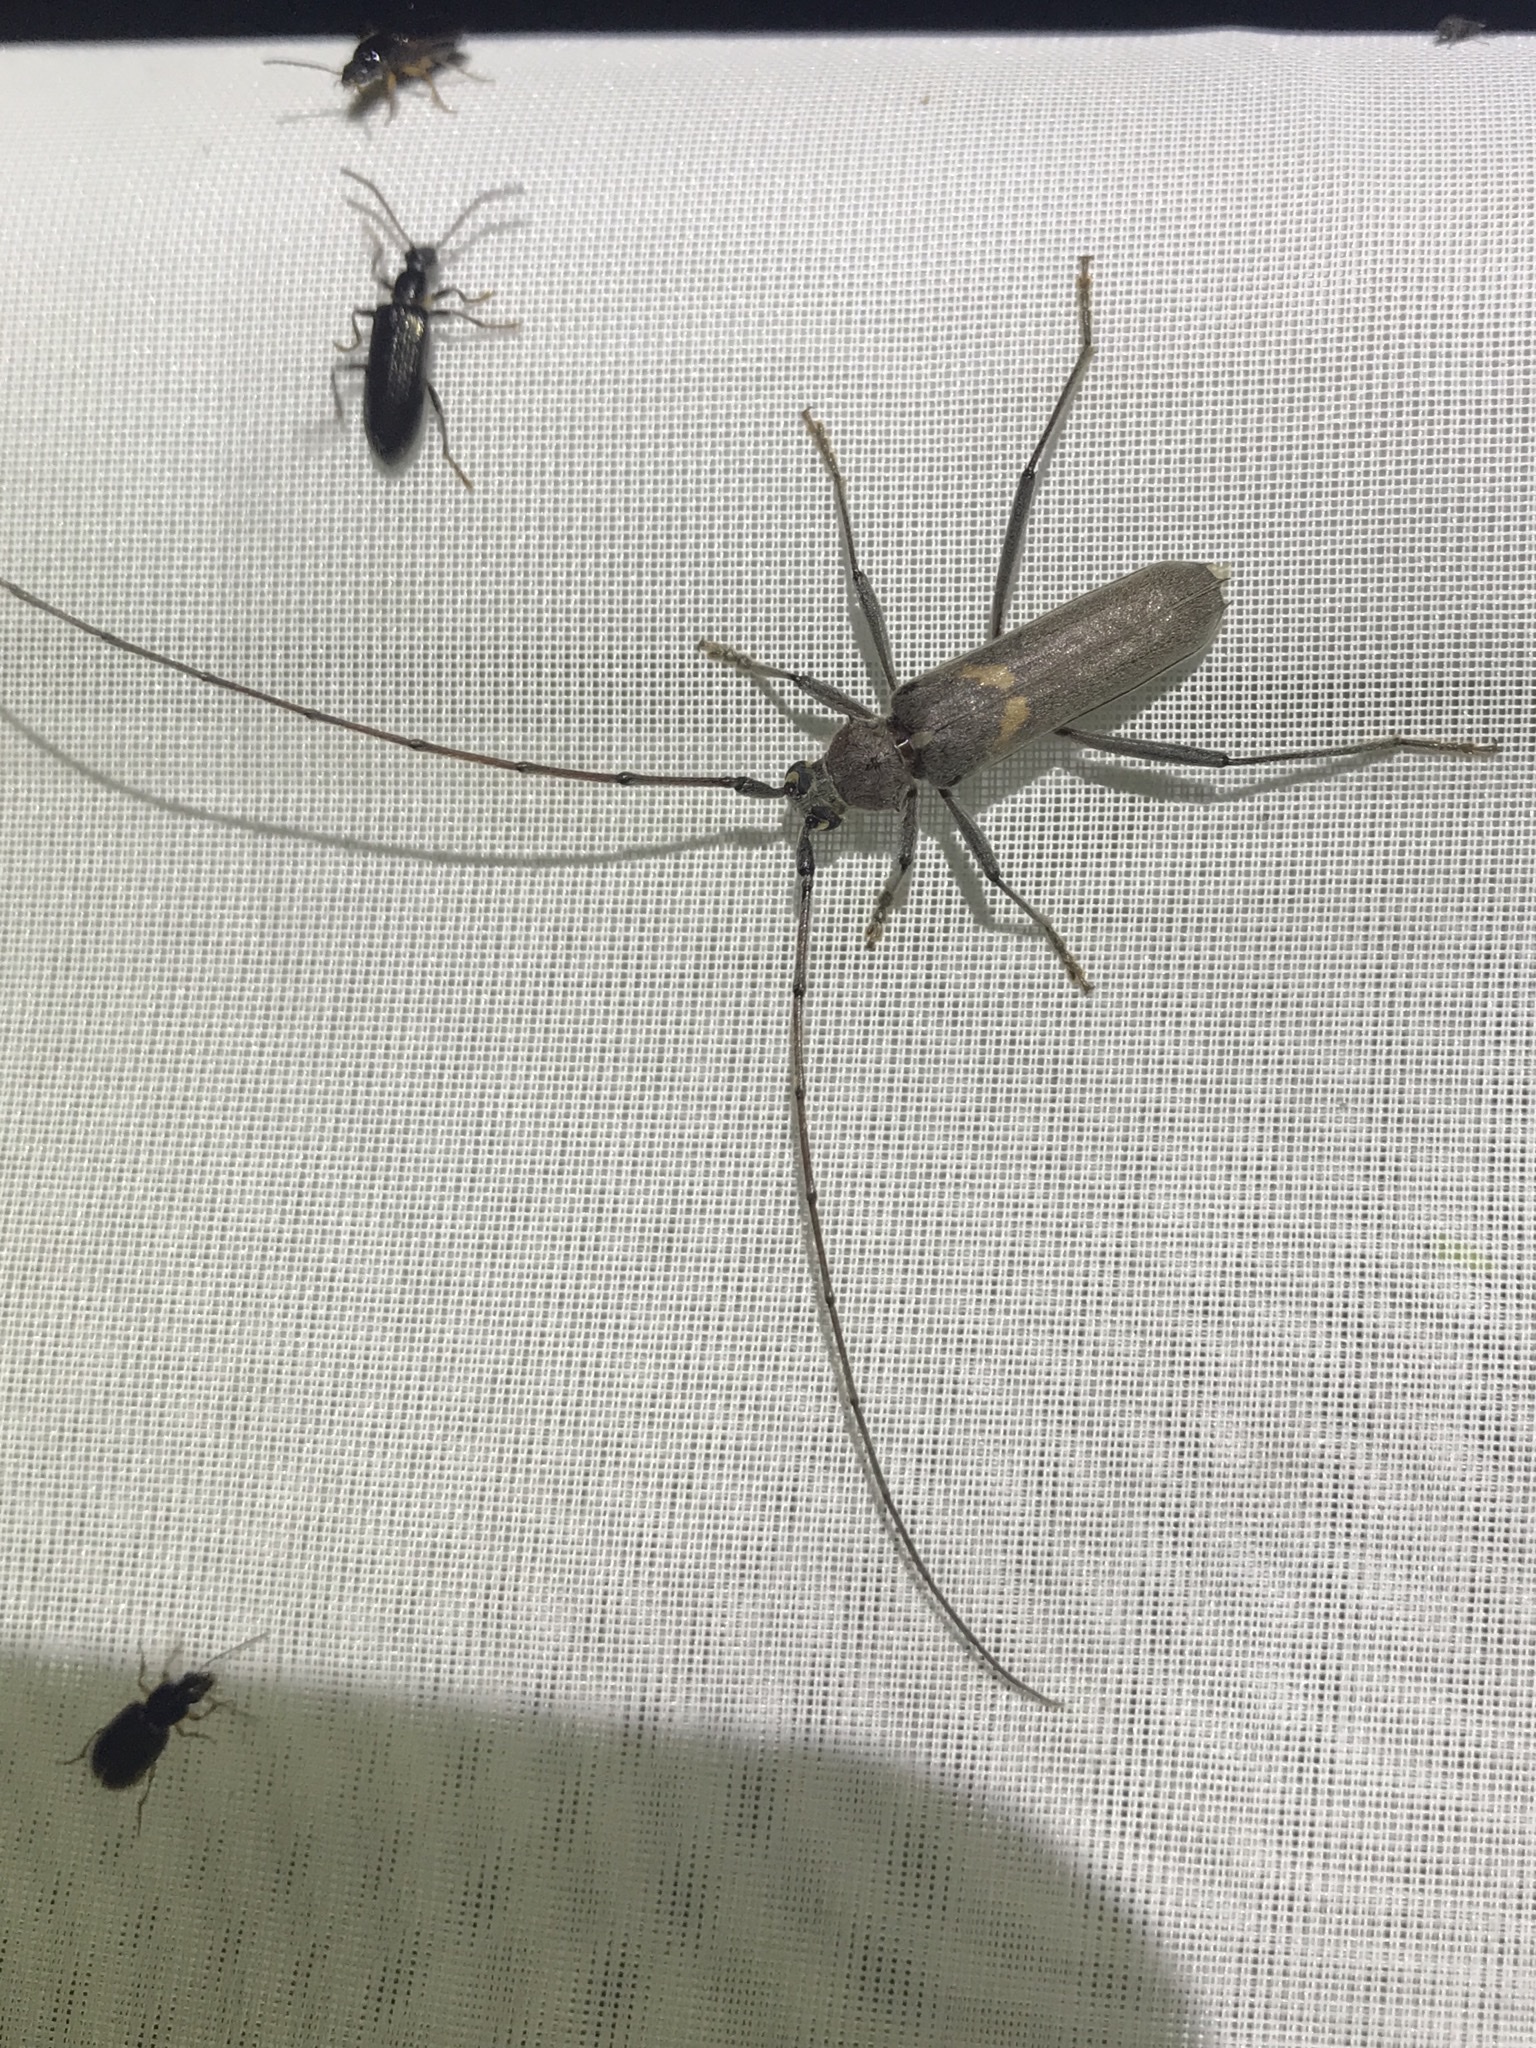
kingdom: Animalia
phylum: Arthropoda
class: Insecta
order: Coleoptera
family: Cerambycidae
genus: Knulliana
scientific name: Knulliana cincta
